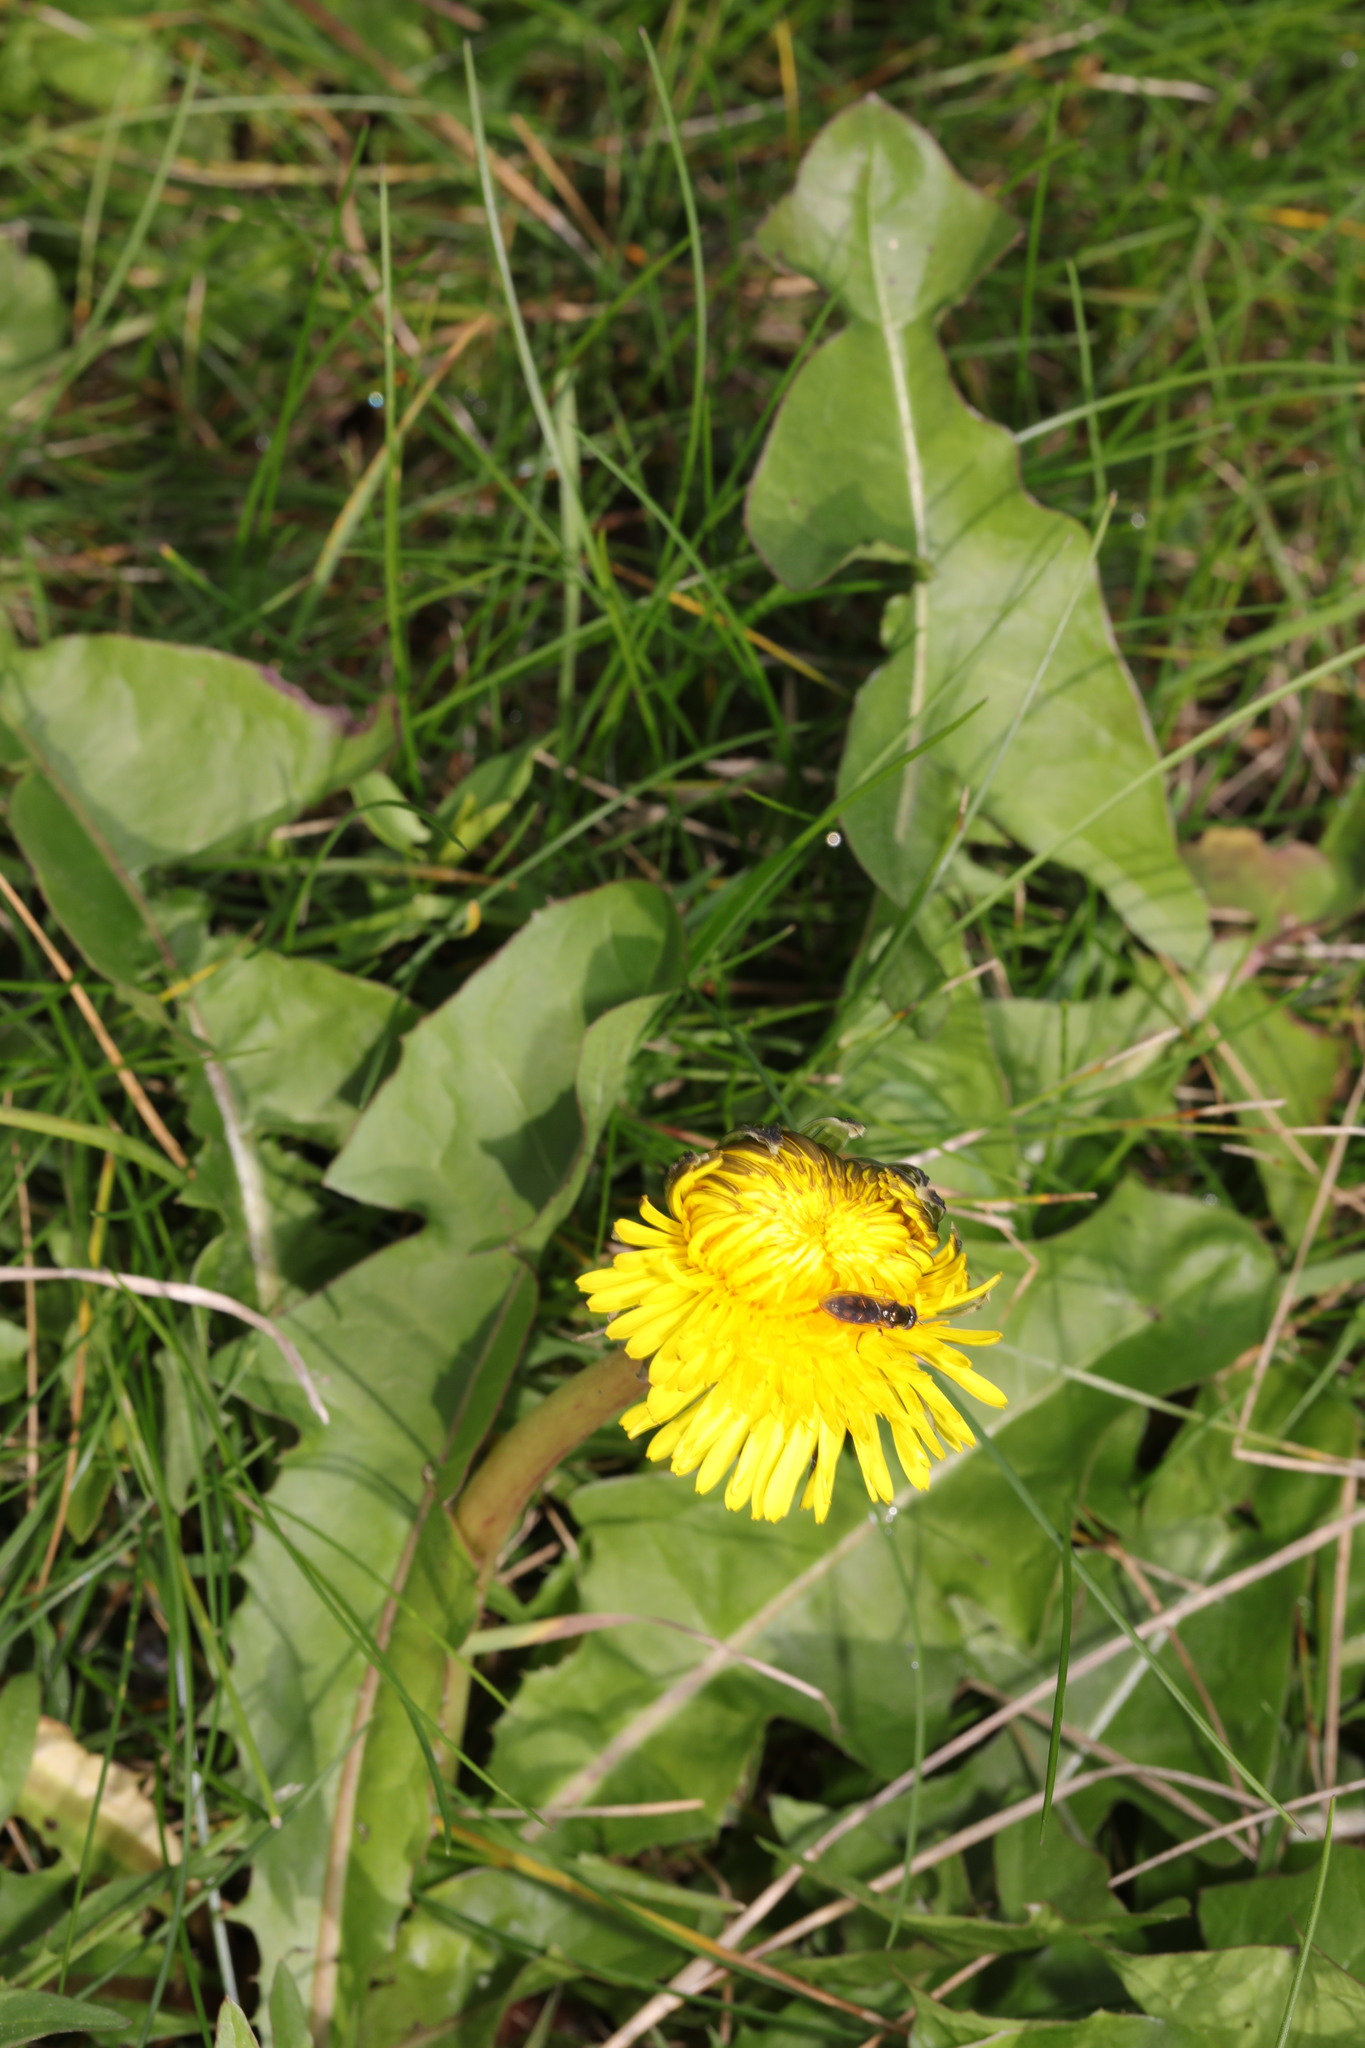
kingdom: Plantae
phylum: Tracheophyta
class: Magnoliopsida
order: Asterales
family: Asteraceae
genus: Taraxacum
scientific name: Taraxacum officinale
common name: Common dandelion
